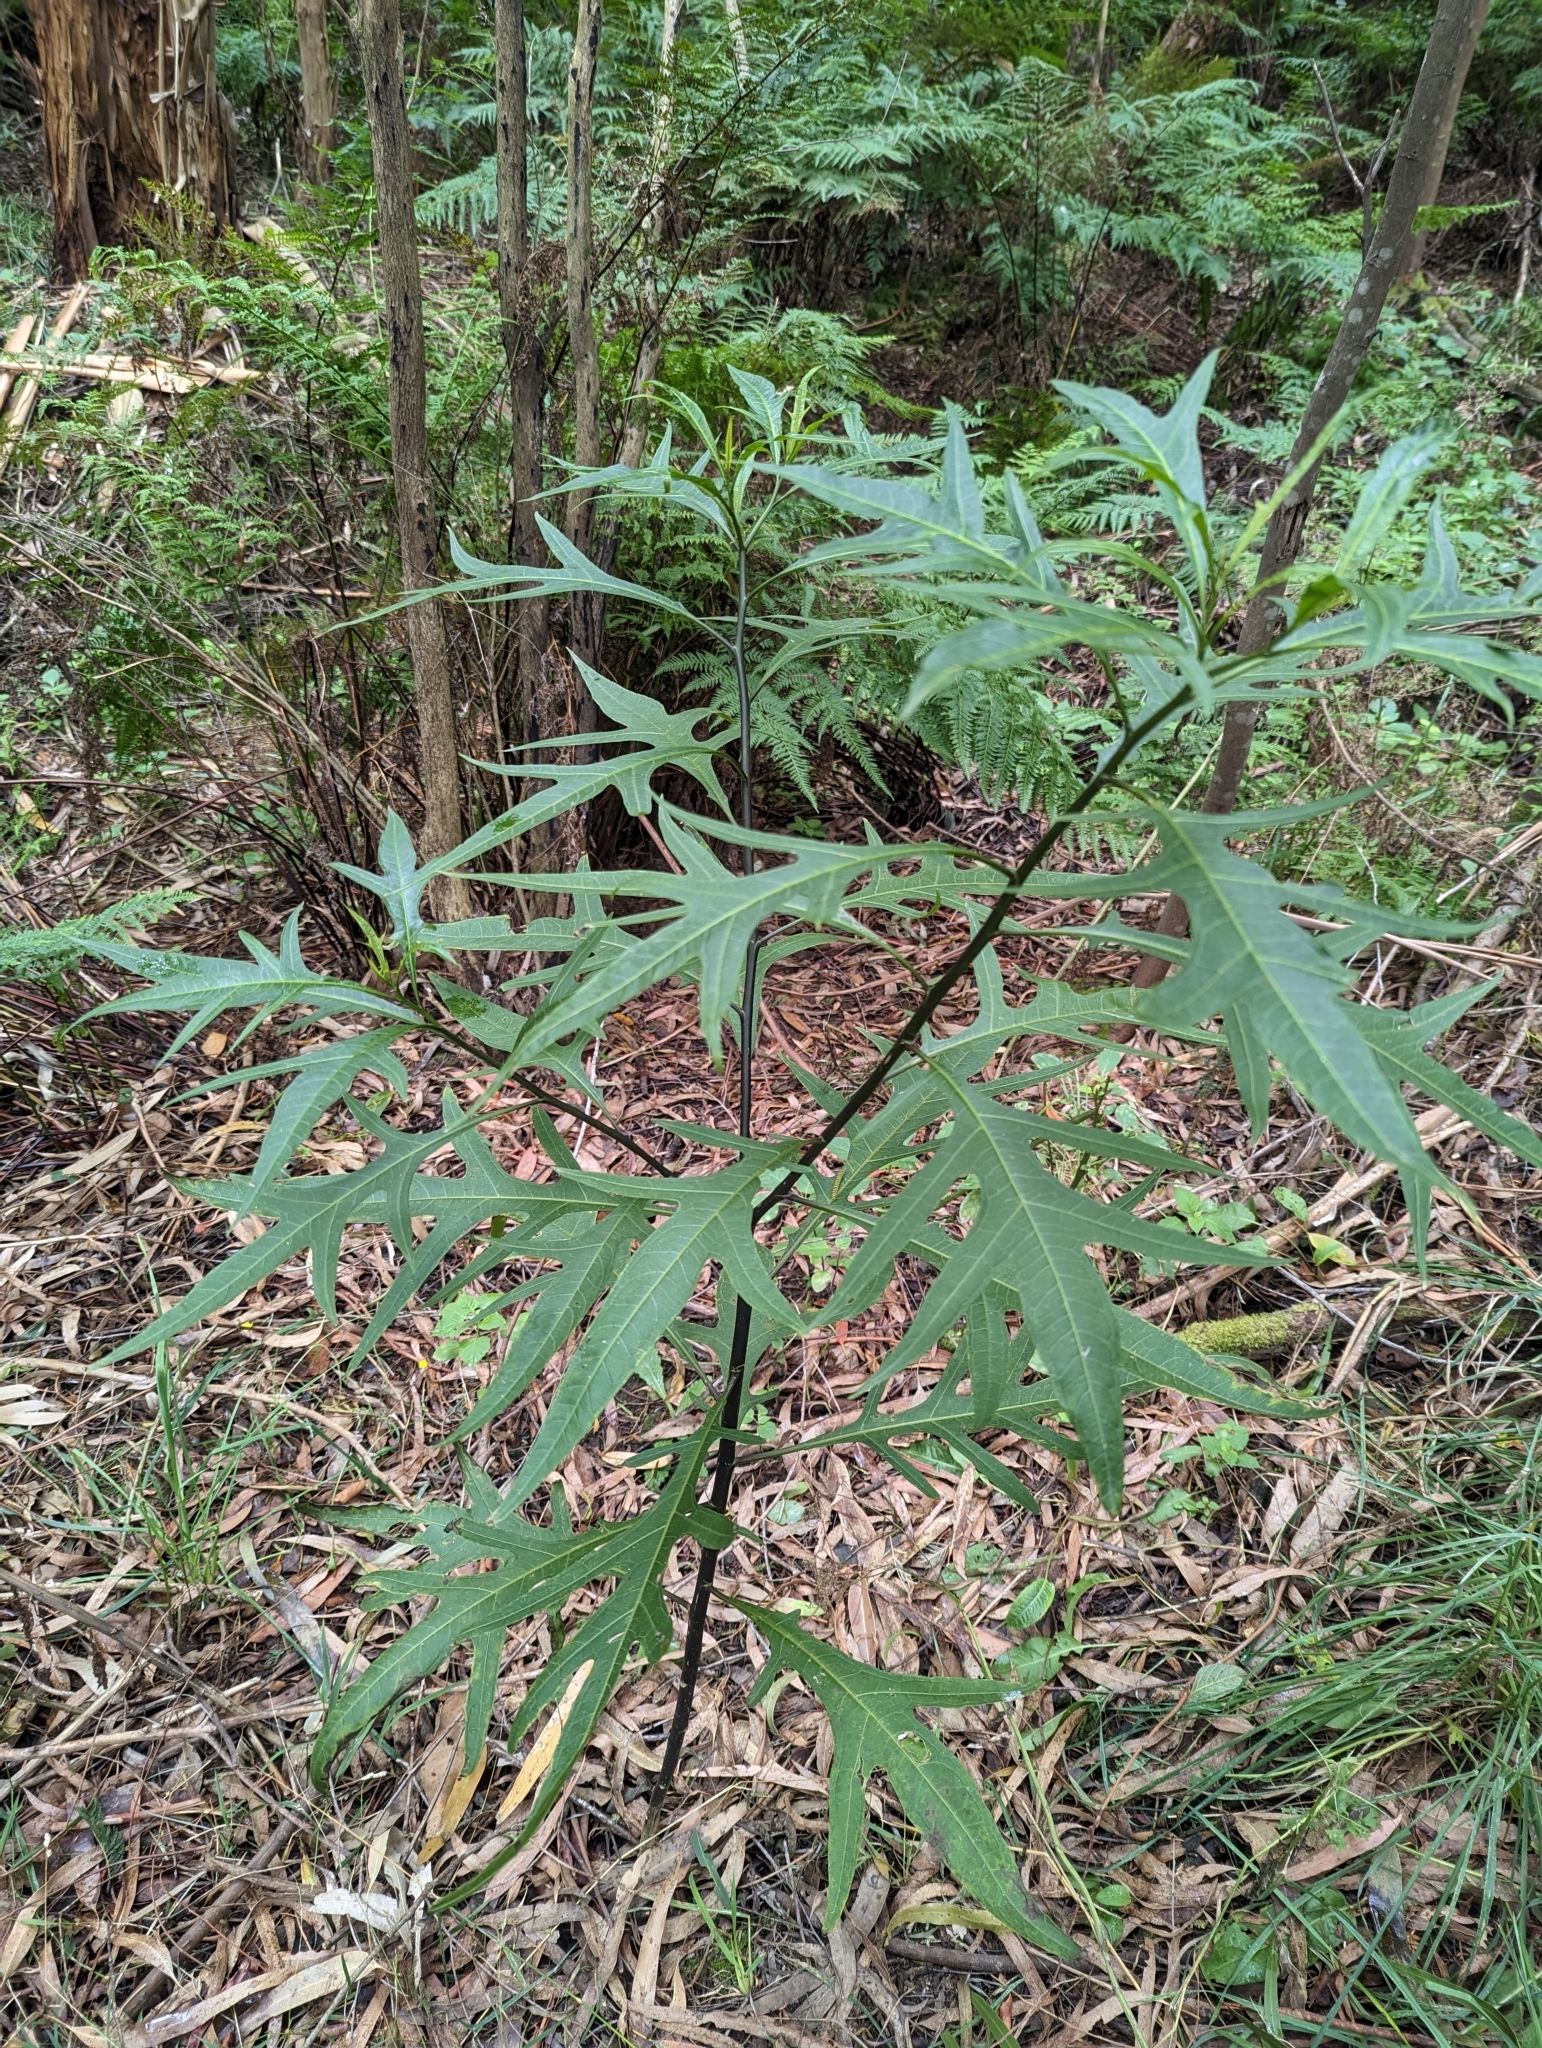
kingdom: Plantae
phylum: Tracheophyta
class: Magnoliopsida
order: Solanales
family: Solanaceae
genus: Solanum
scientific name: Solanum
